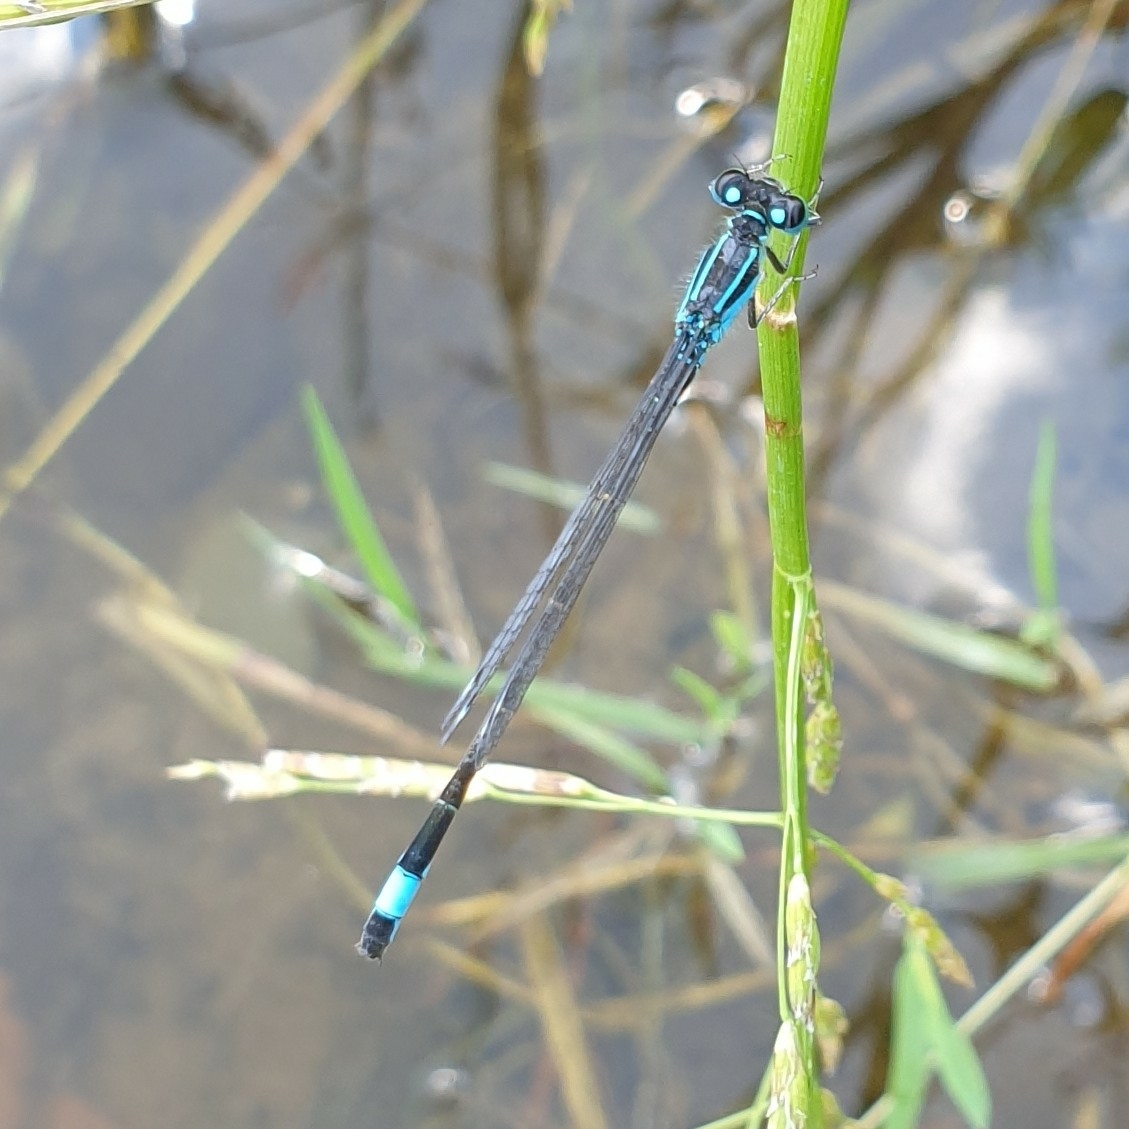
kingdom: Animalia
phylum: Arthropoda
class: Insecta
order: Odonata
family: Coenagrionidae
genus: Ischnura
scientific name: Ischnura elegans
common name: Blue-tailed damselfly
